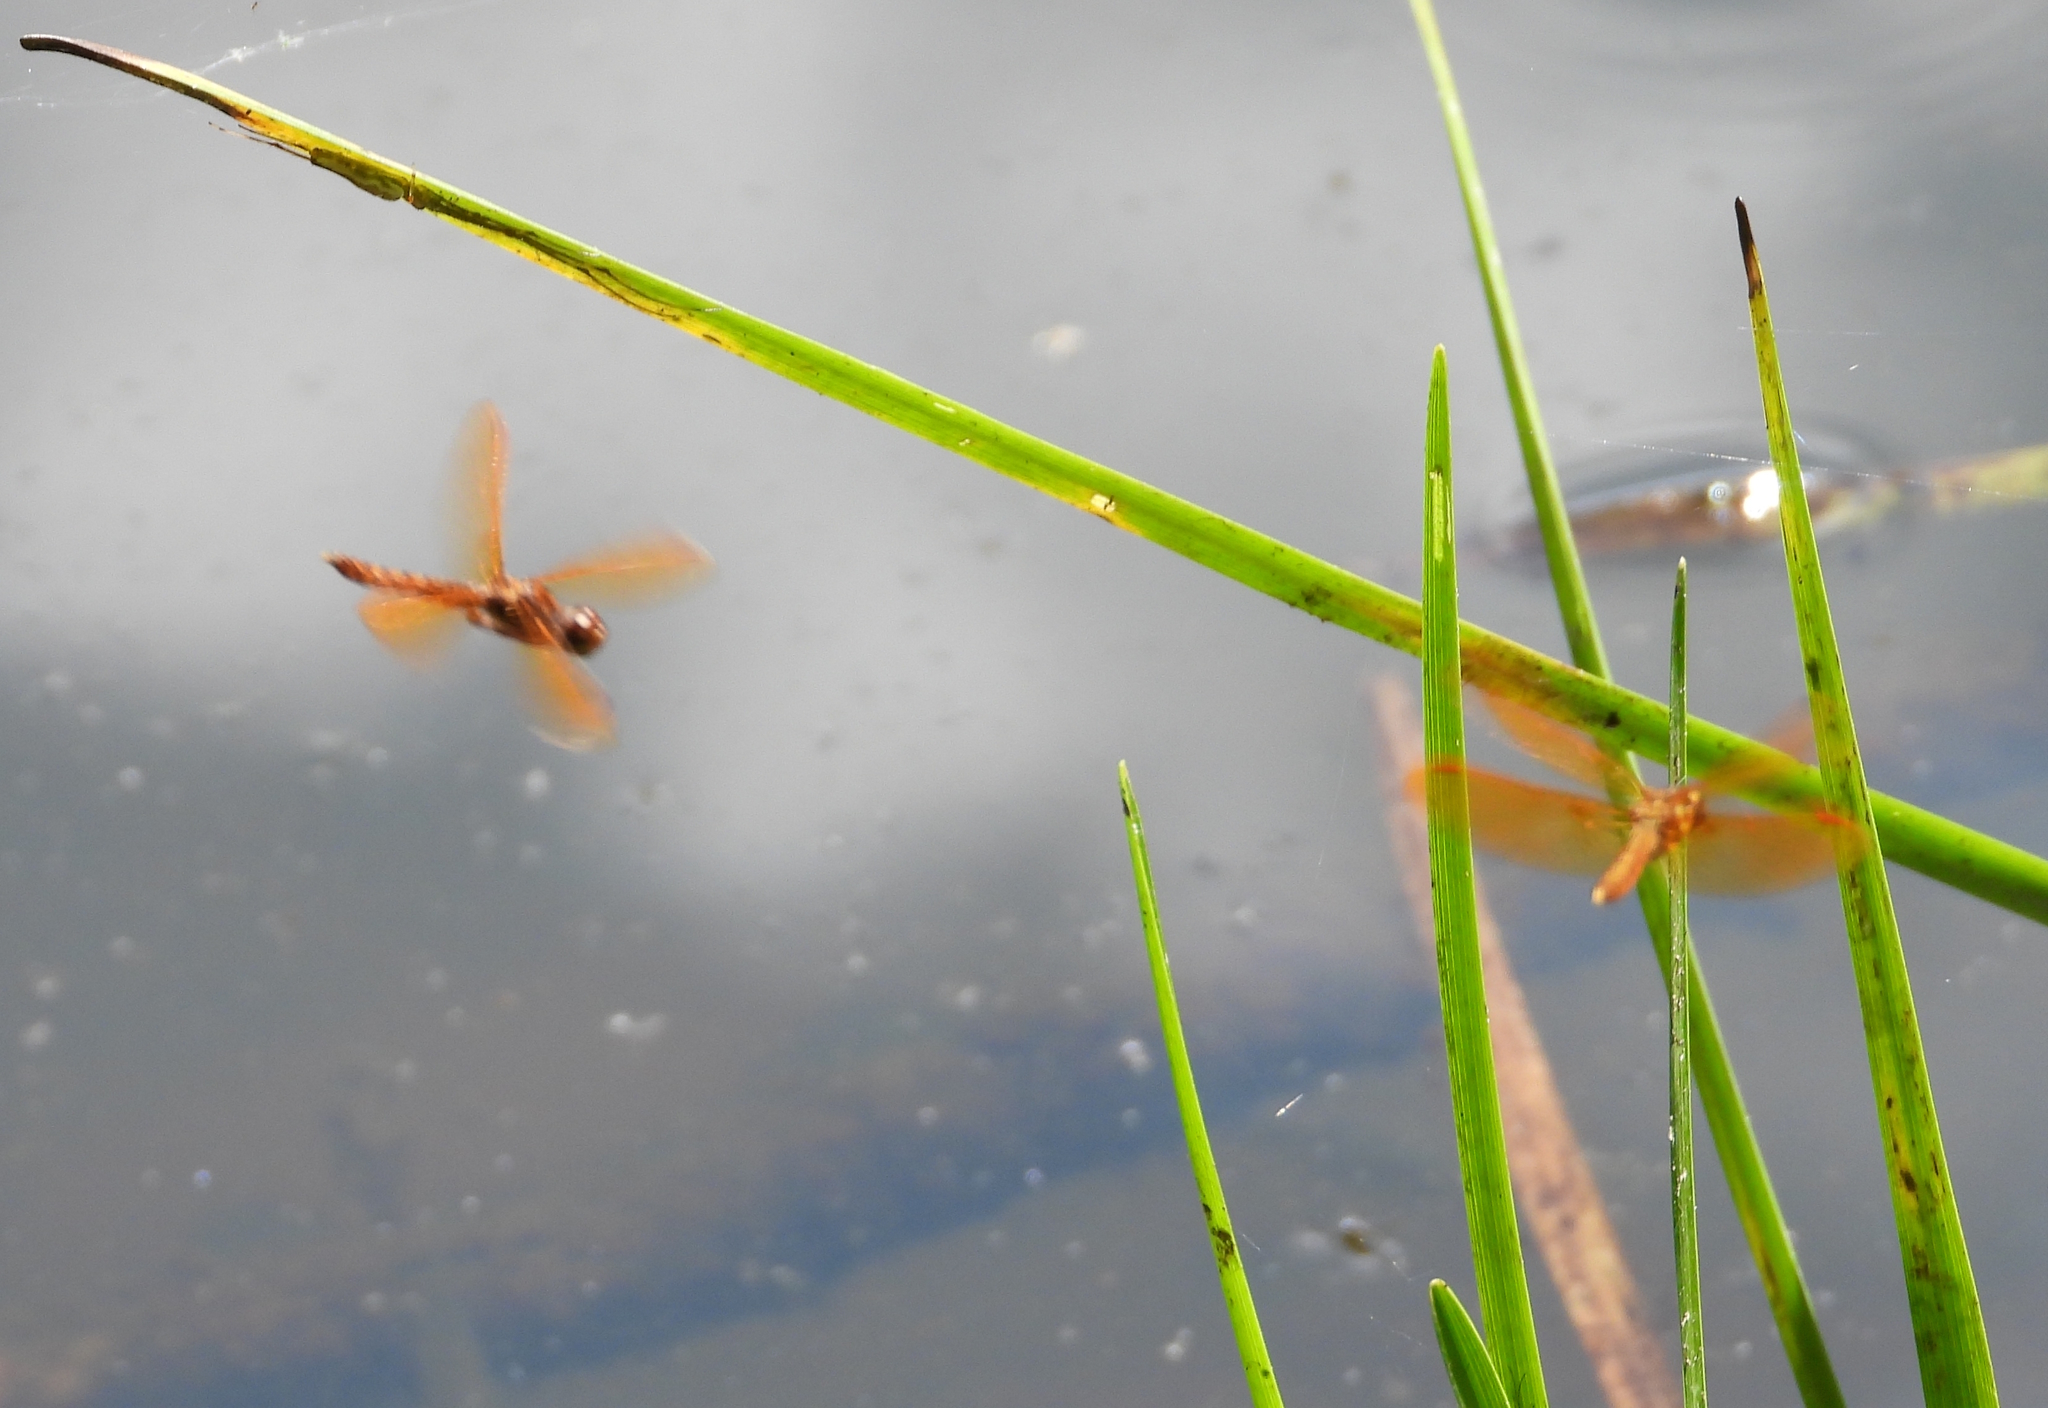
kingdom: Animalia
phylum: Arthropoda
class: Insecta
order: Odonata
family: Libellulidae
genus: Perithemis
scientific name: Perithemis tenera
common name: Eastern amberwing
